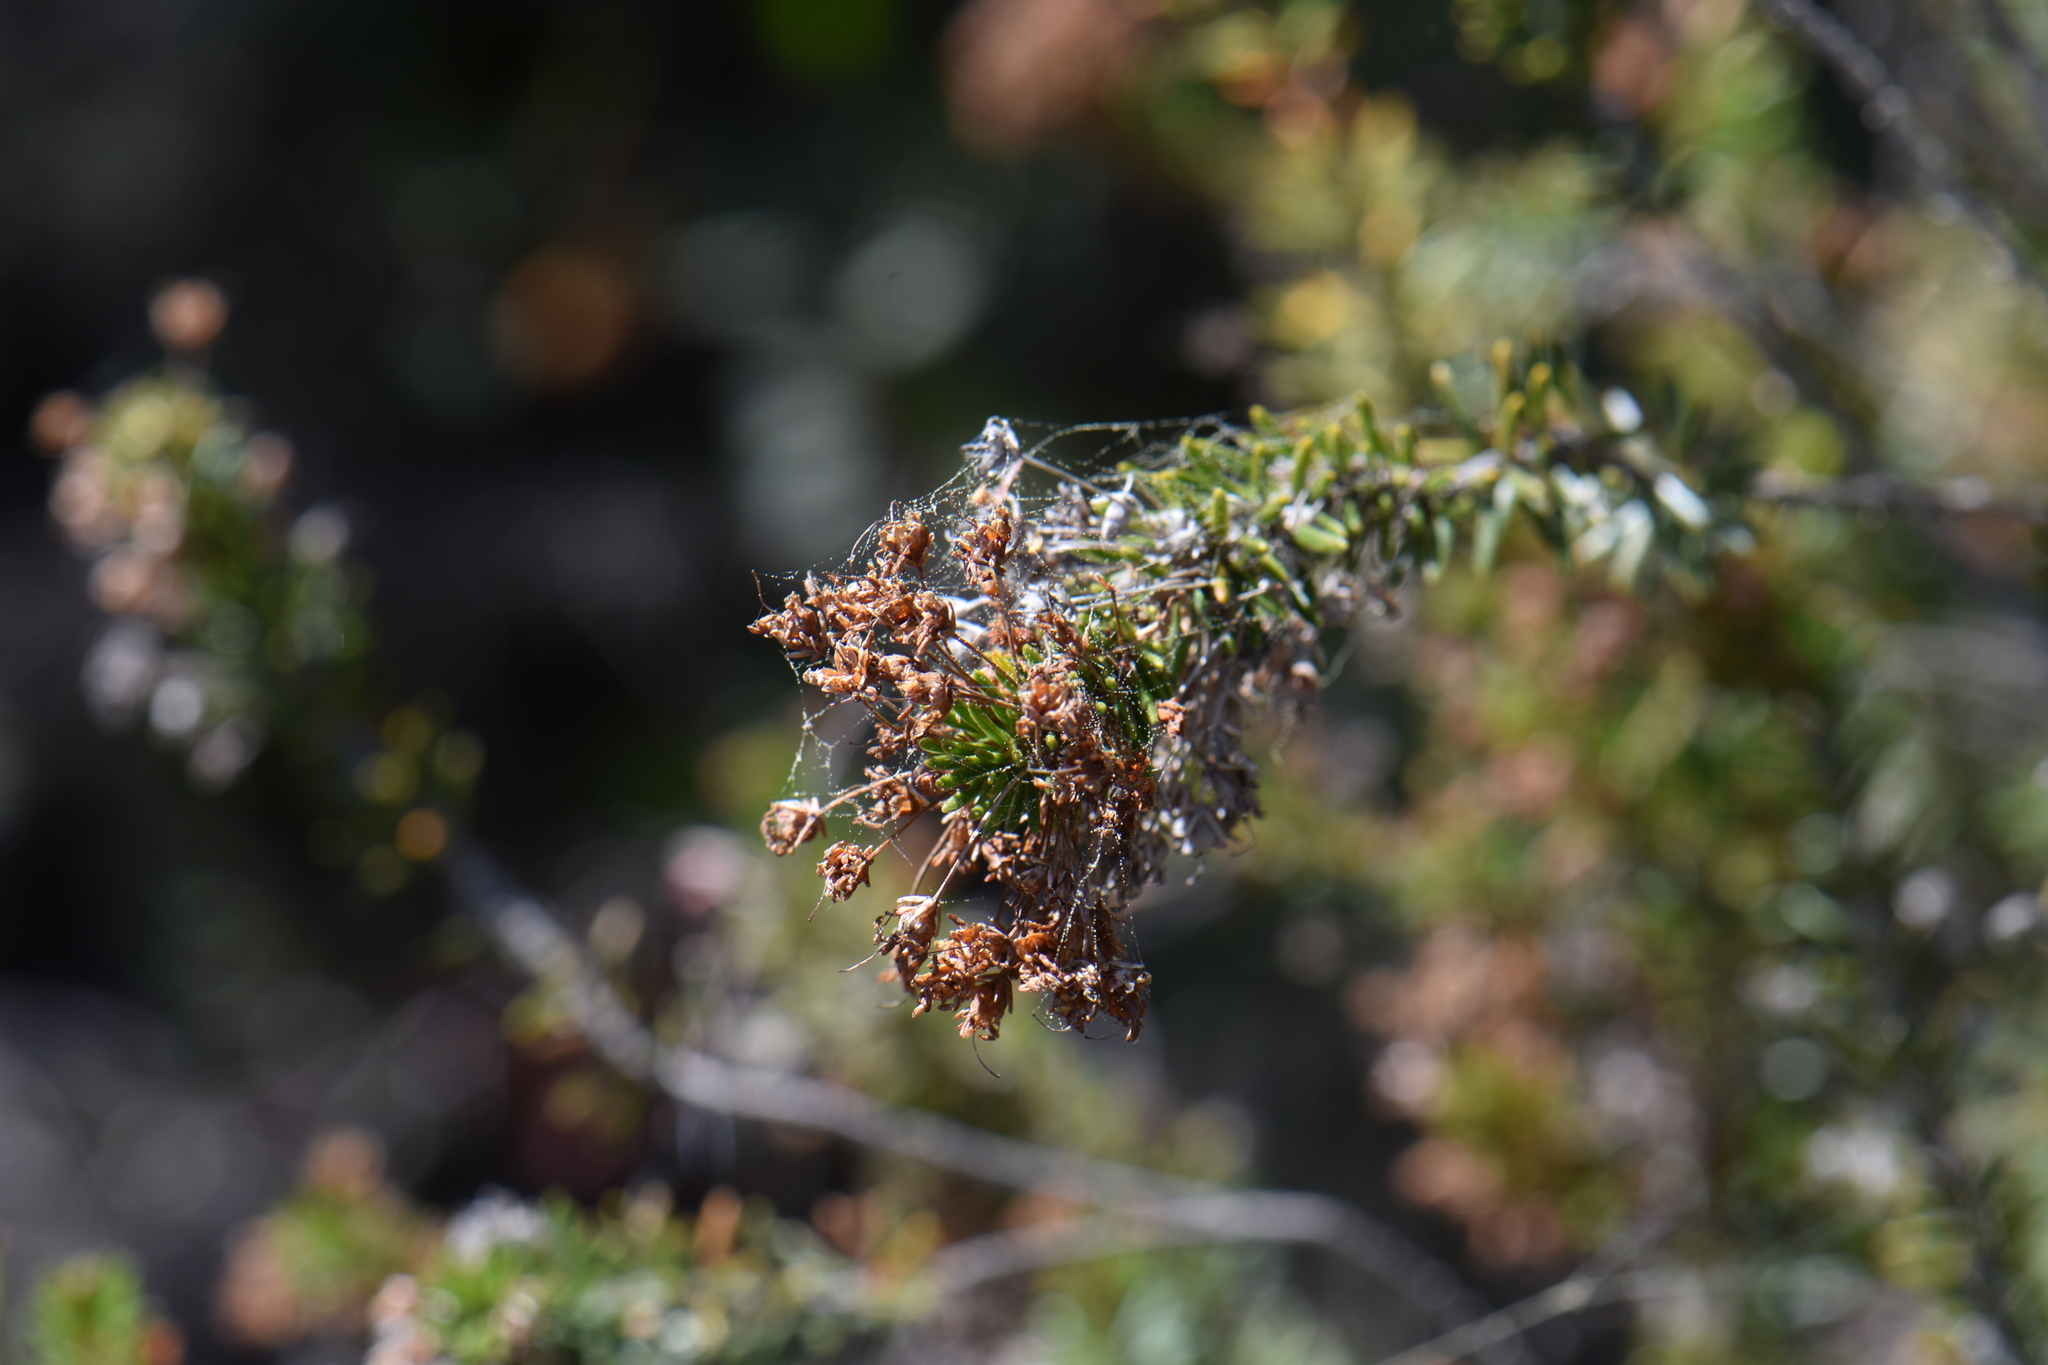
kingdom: Plantae
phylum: Tracheophyta
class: Magnoliopsida
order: Ericales
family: Ericaceae
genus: Erica
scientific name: Erica multiflora
